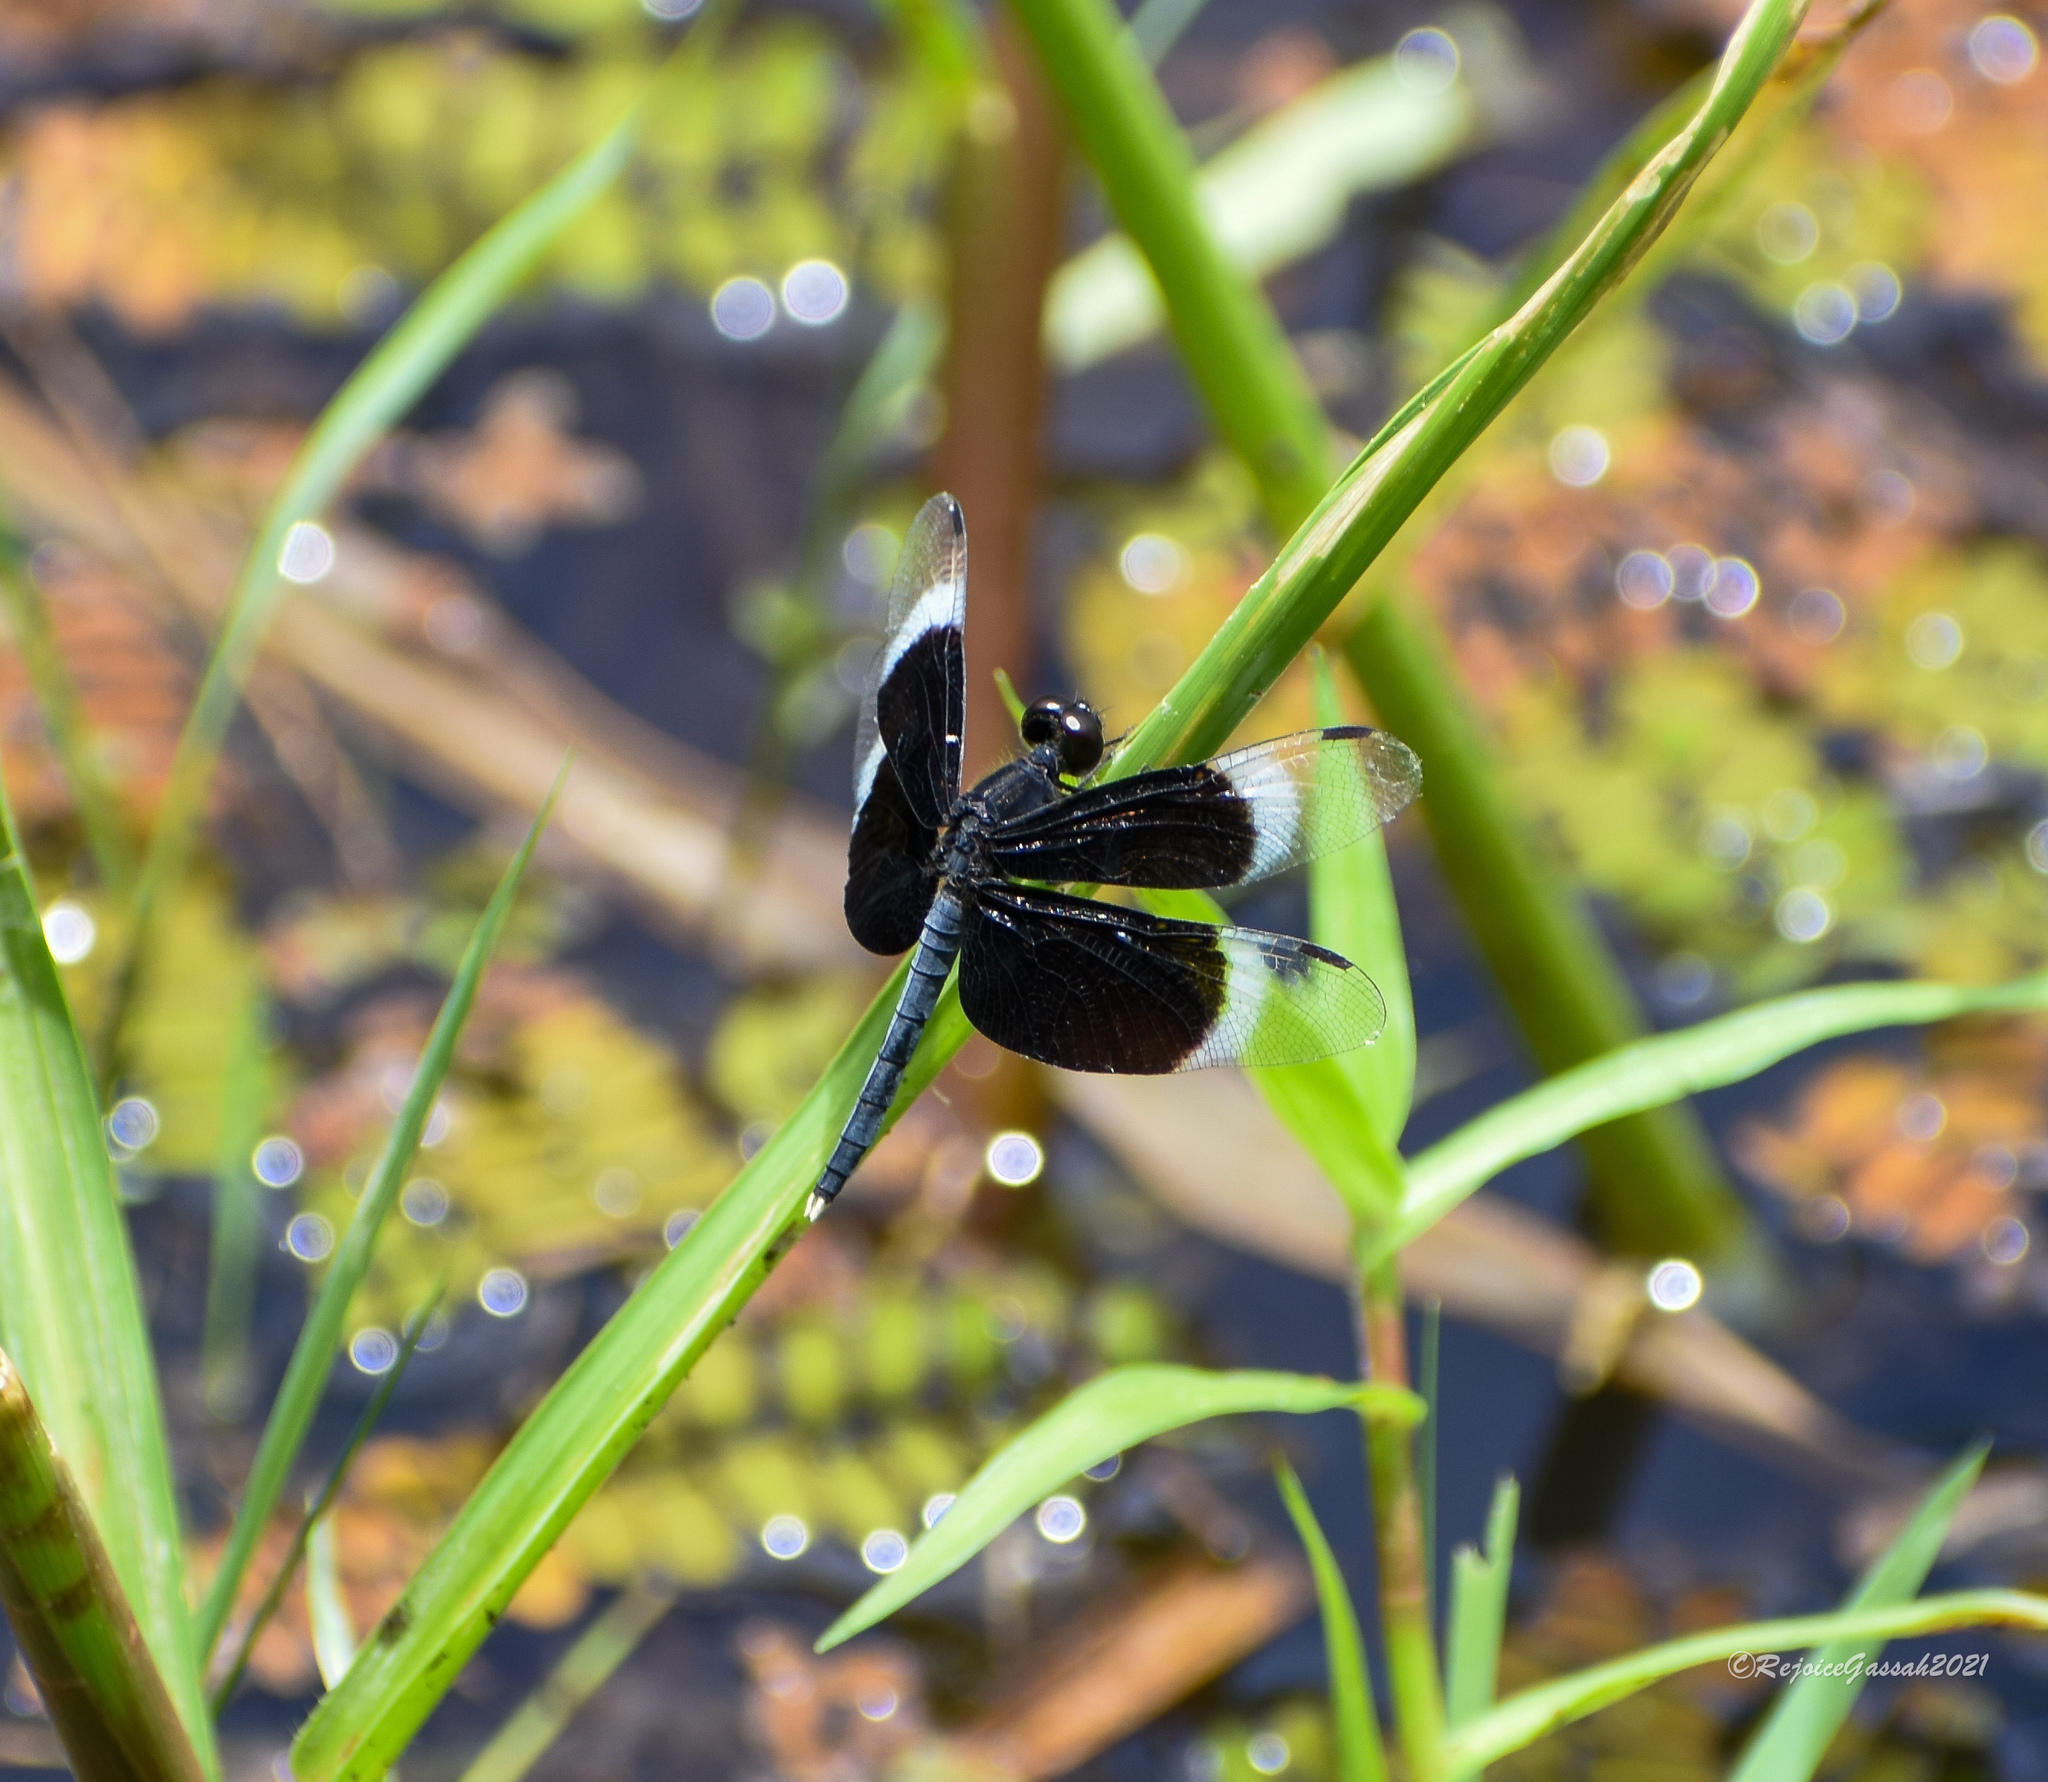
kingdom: Animalia
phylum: Arthropoda
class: Insecta
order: Odonata
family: Libellulidae
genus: Neurothemis
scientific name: Neurothemis tullia
